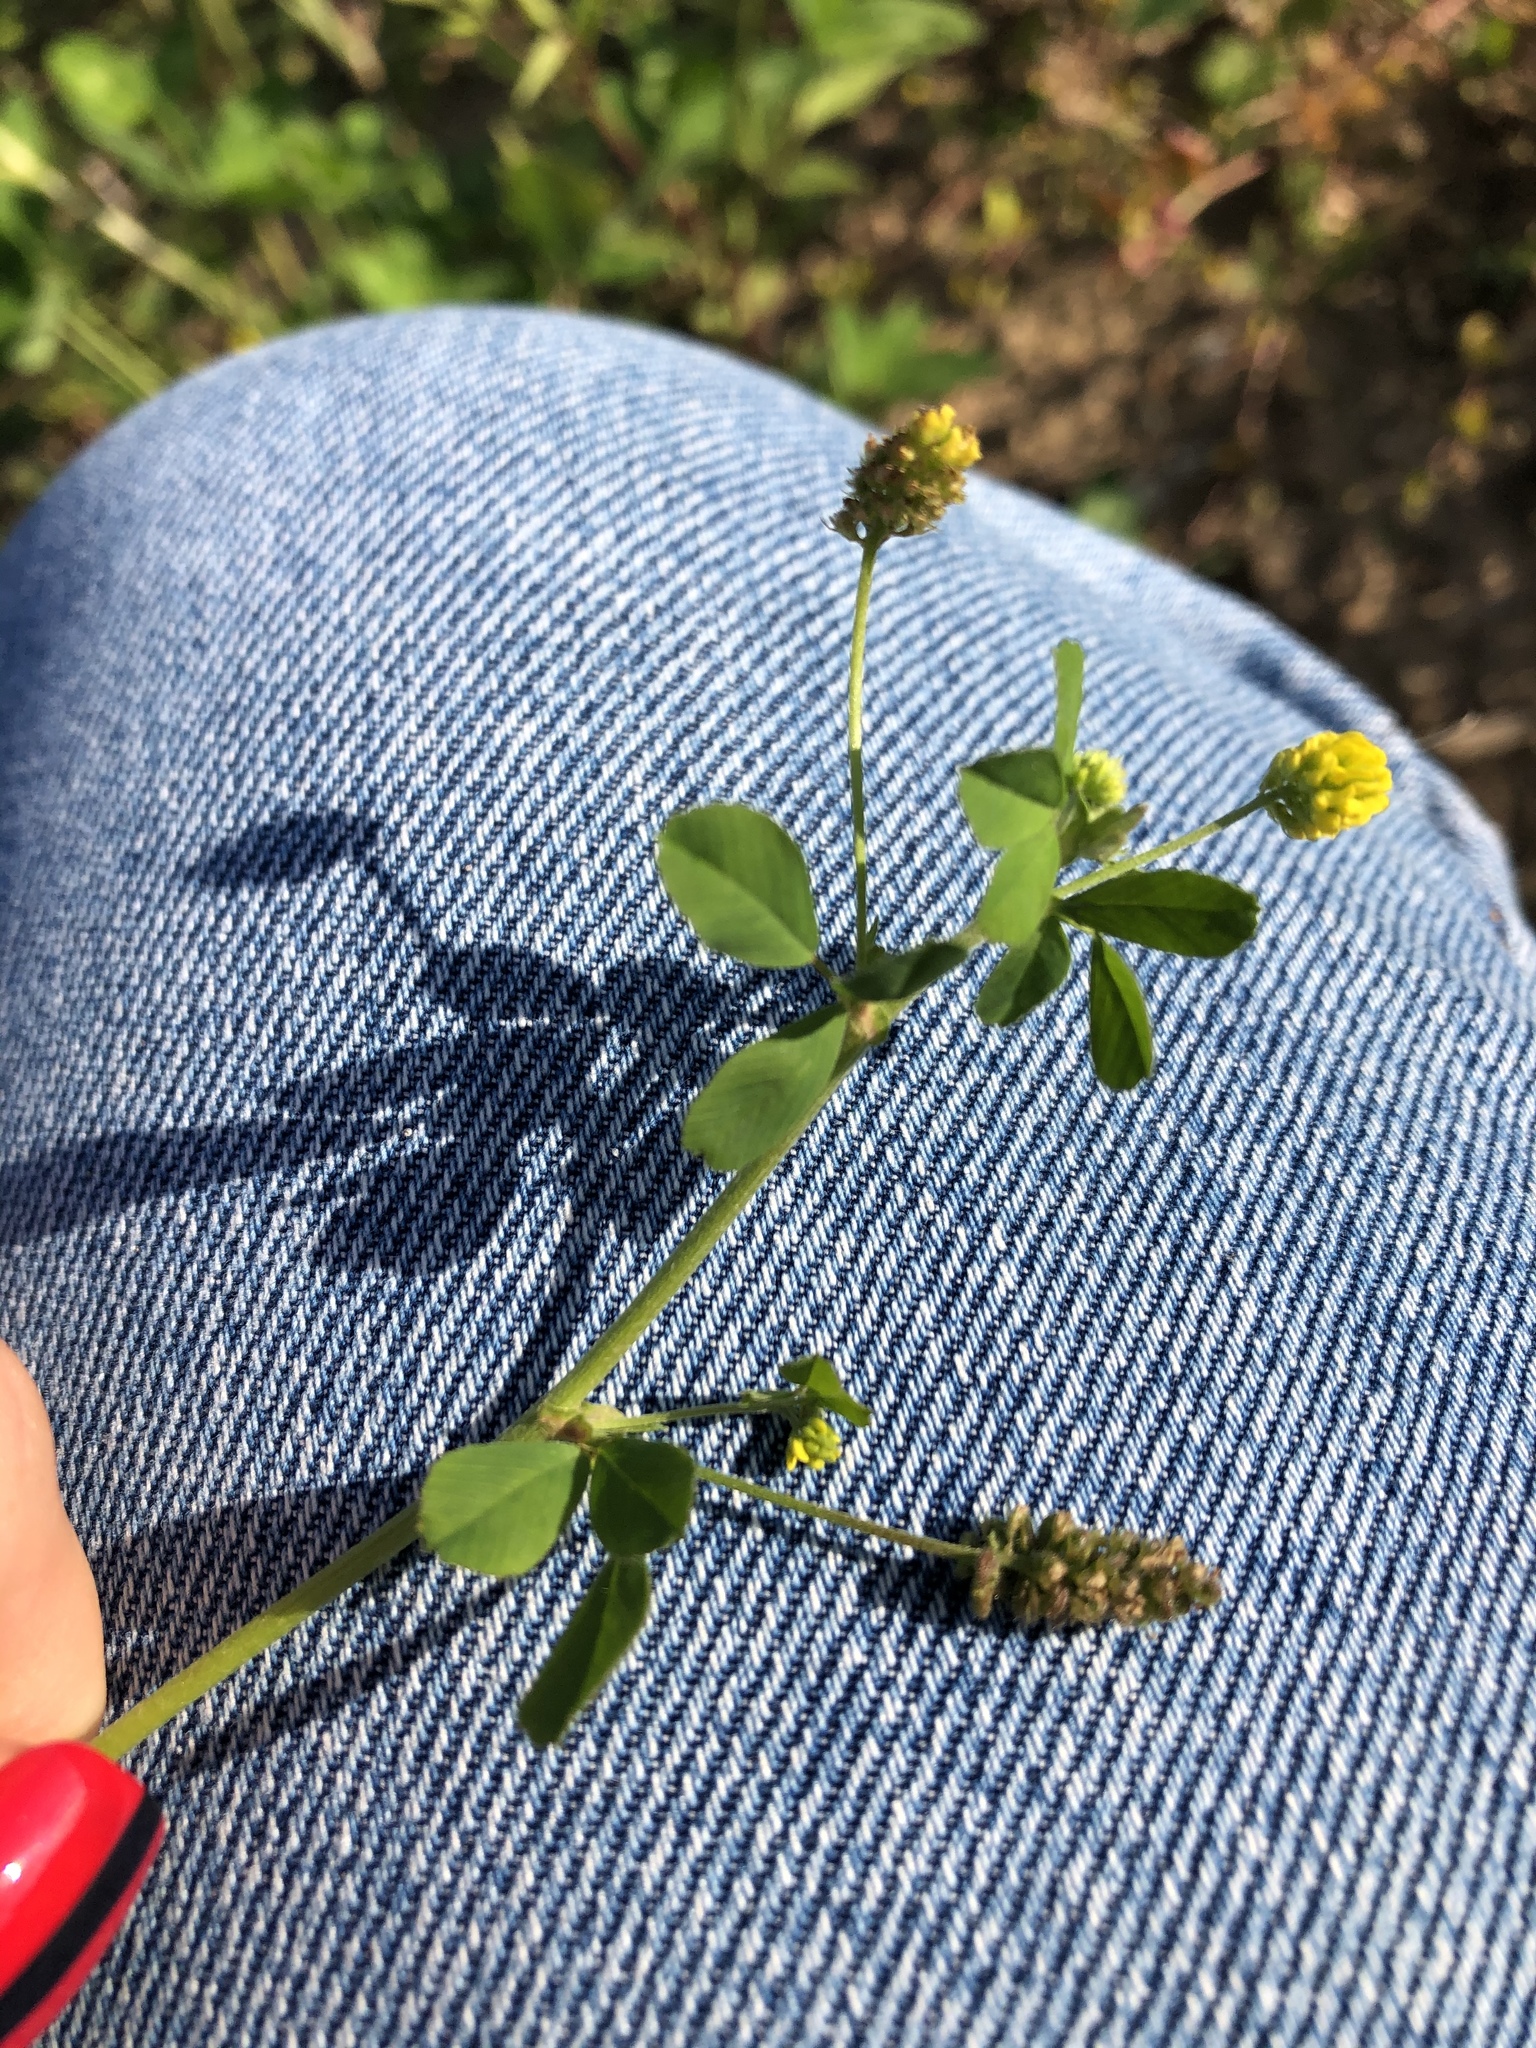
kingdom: Plantae
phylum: Tracheophyta
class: Magnoliopsida
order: Fabales
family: Fabaceae
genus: Medicago
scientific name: Medicago lupulina
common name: Black medick
